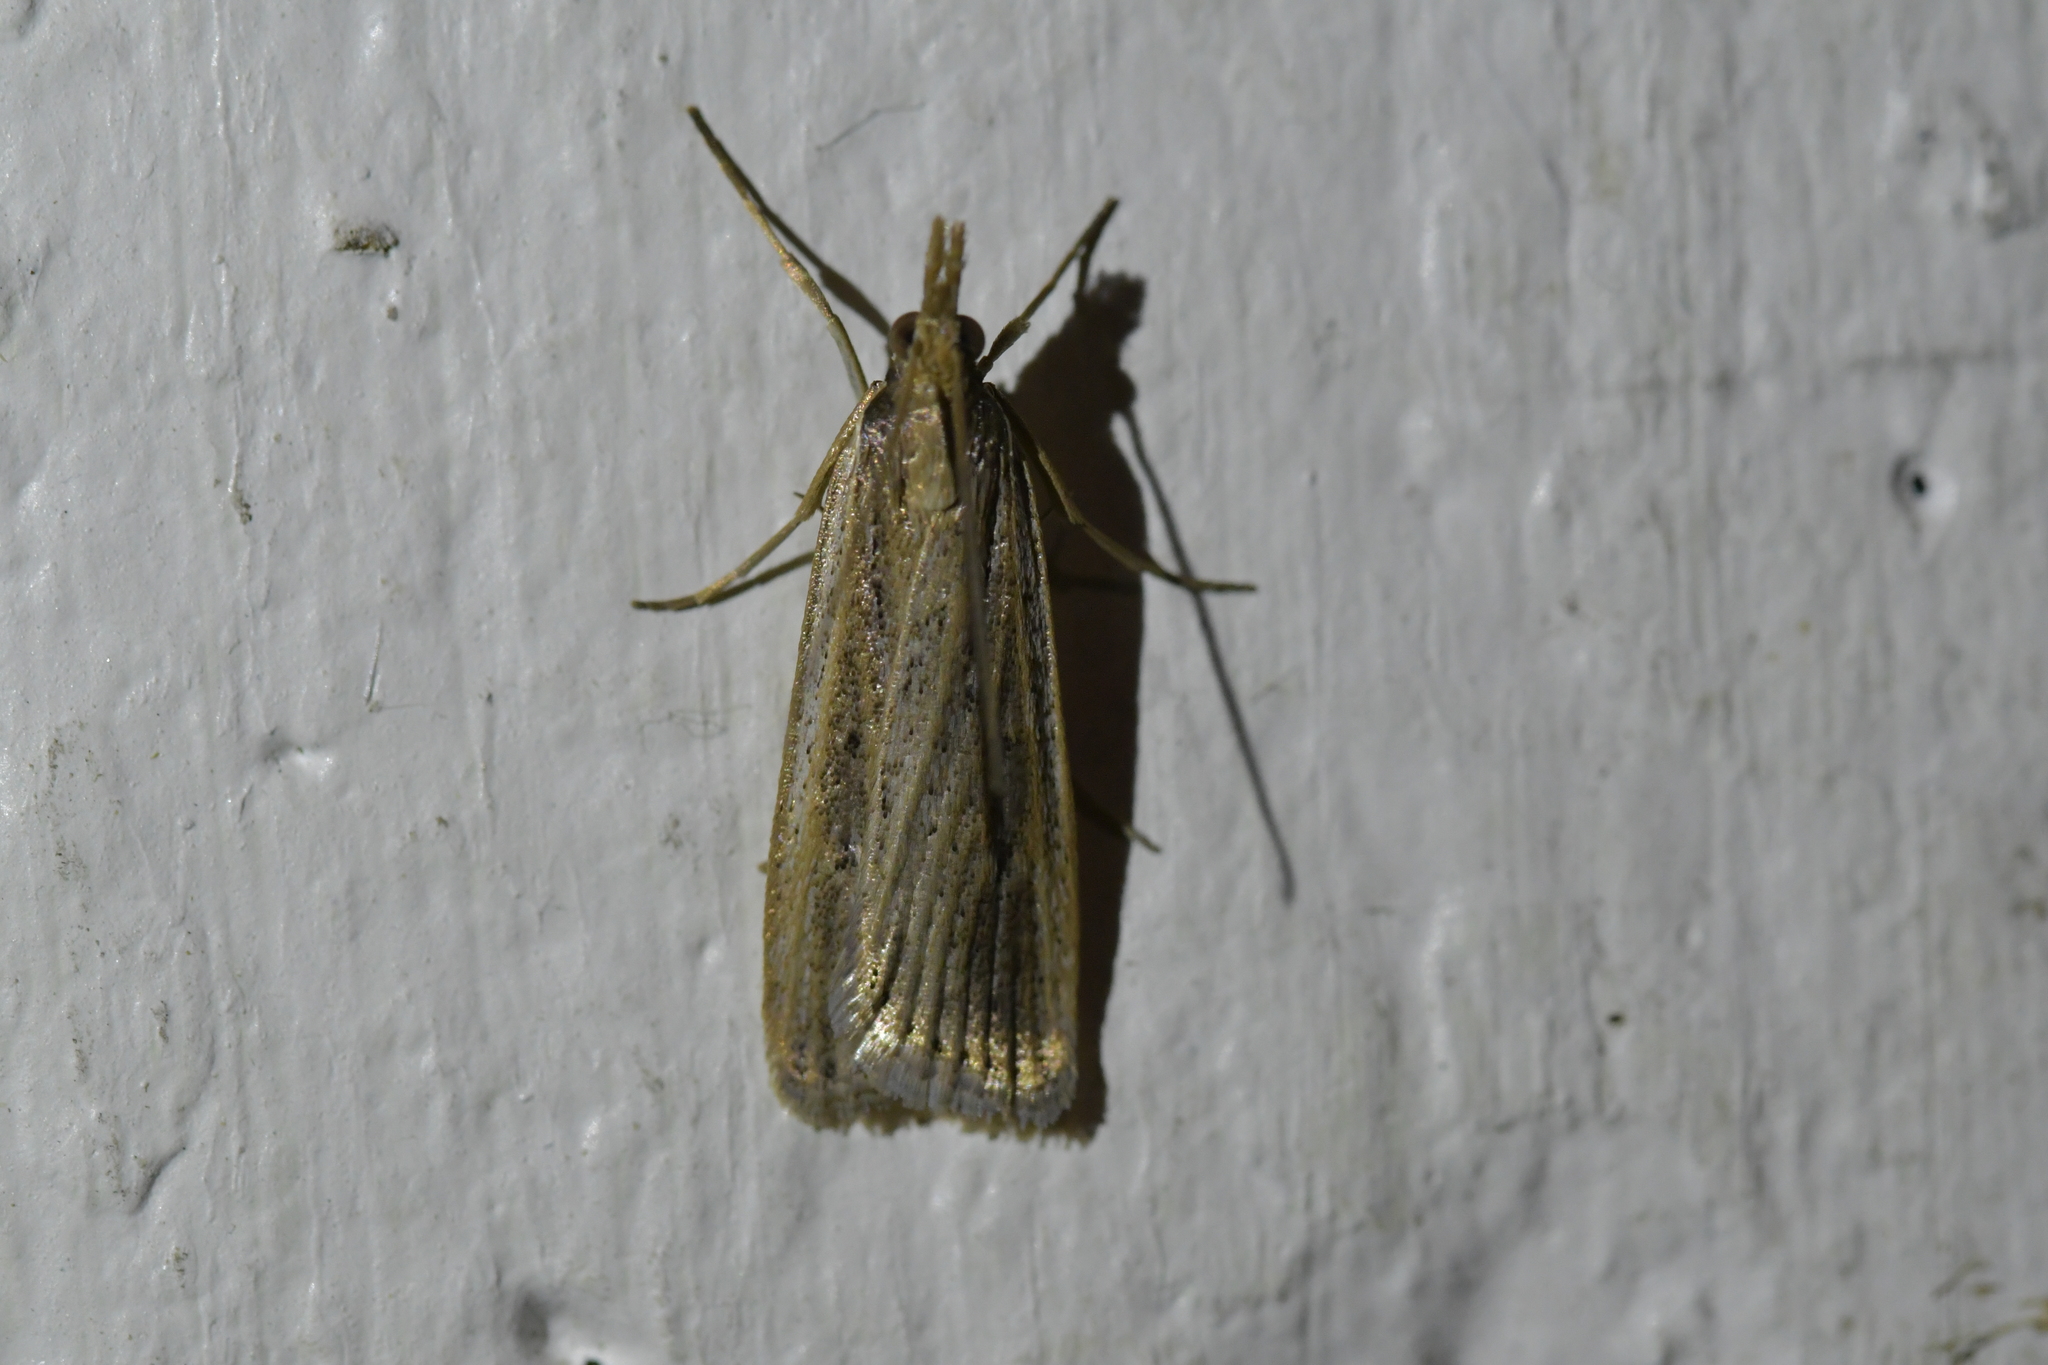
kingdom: Animalia
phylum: Arthropoda
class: Insecta
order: Lepidoptera
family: Crambidae
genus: Eudonia
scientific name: Eudonia sabulosella
